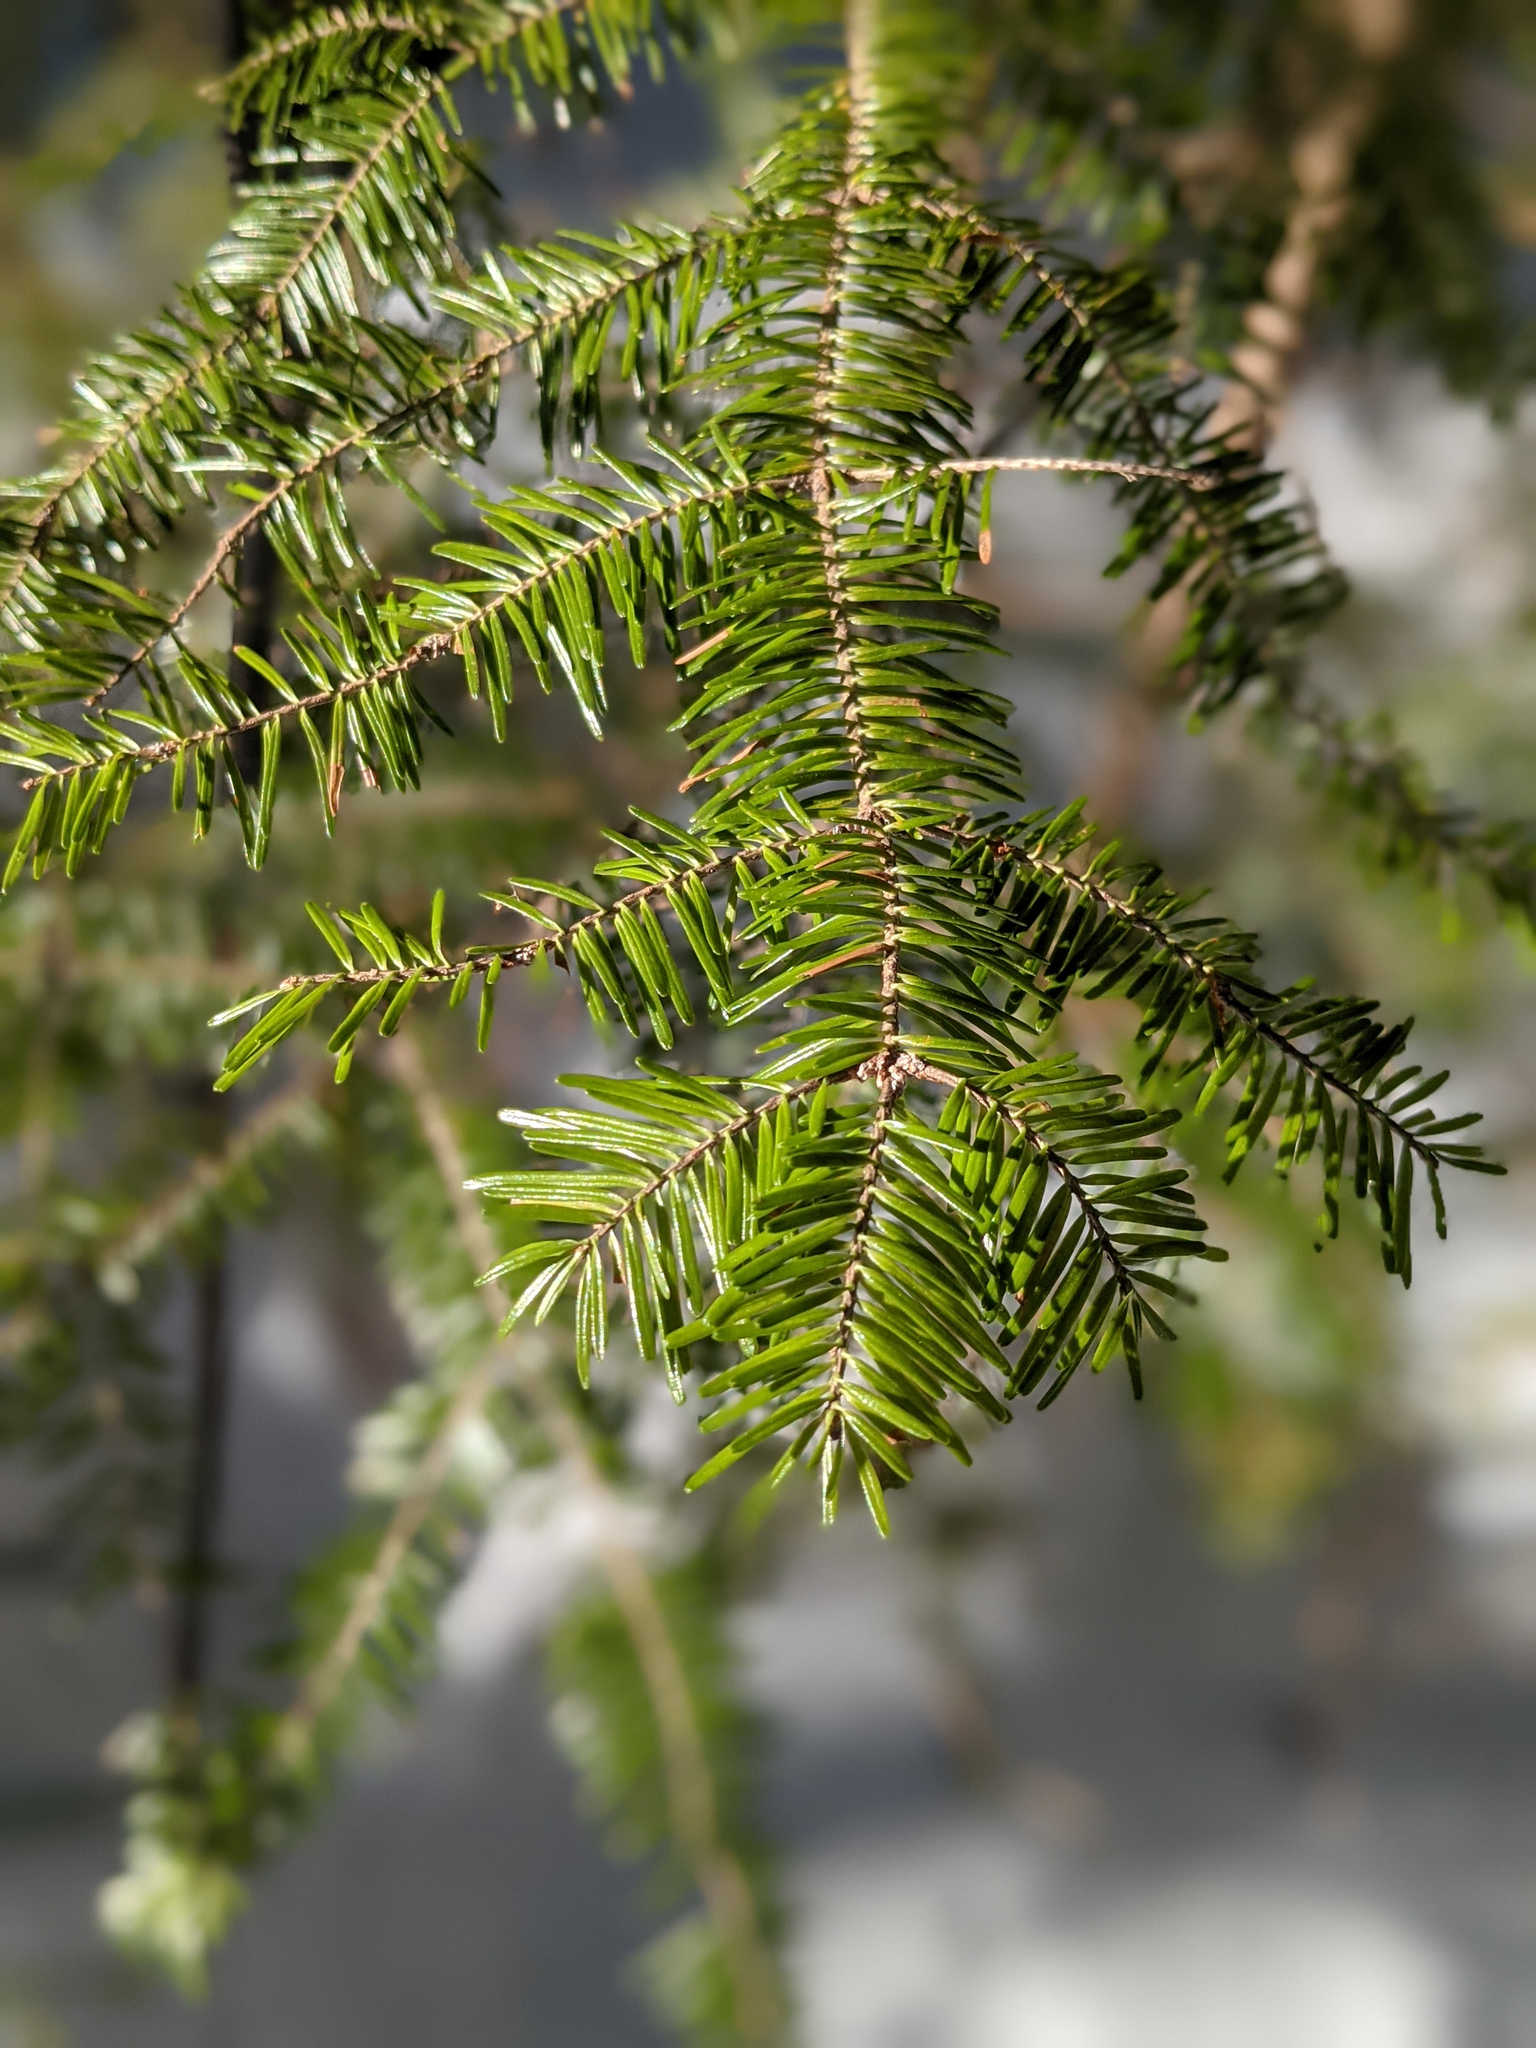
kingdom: Plantae
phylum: Tracheophyta
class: Pinopsida
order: Pinales
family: Pinaceae
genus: Abies
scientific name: Abies balsamea
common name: Balsam fir
